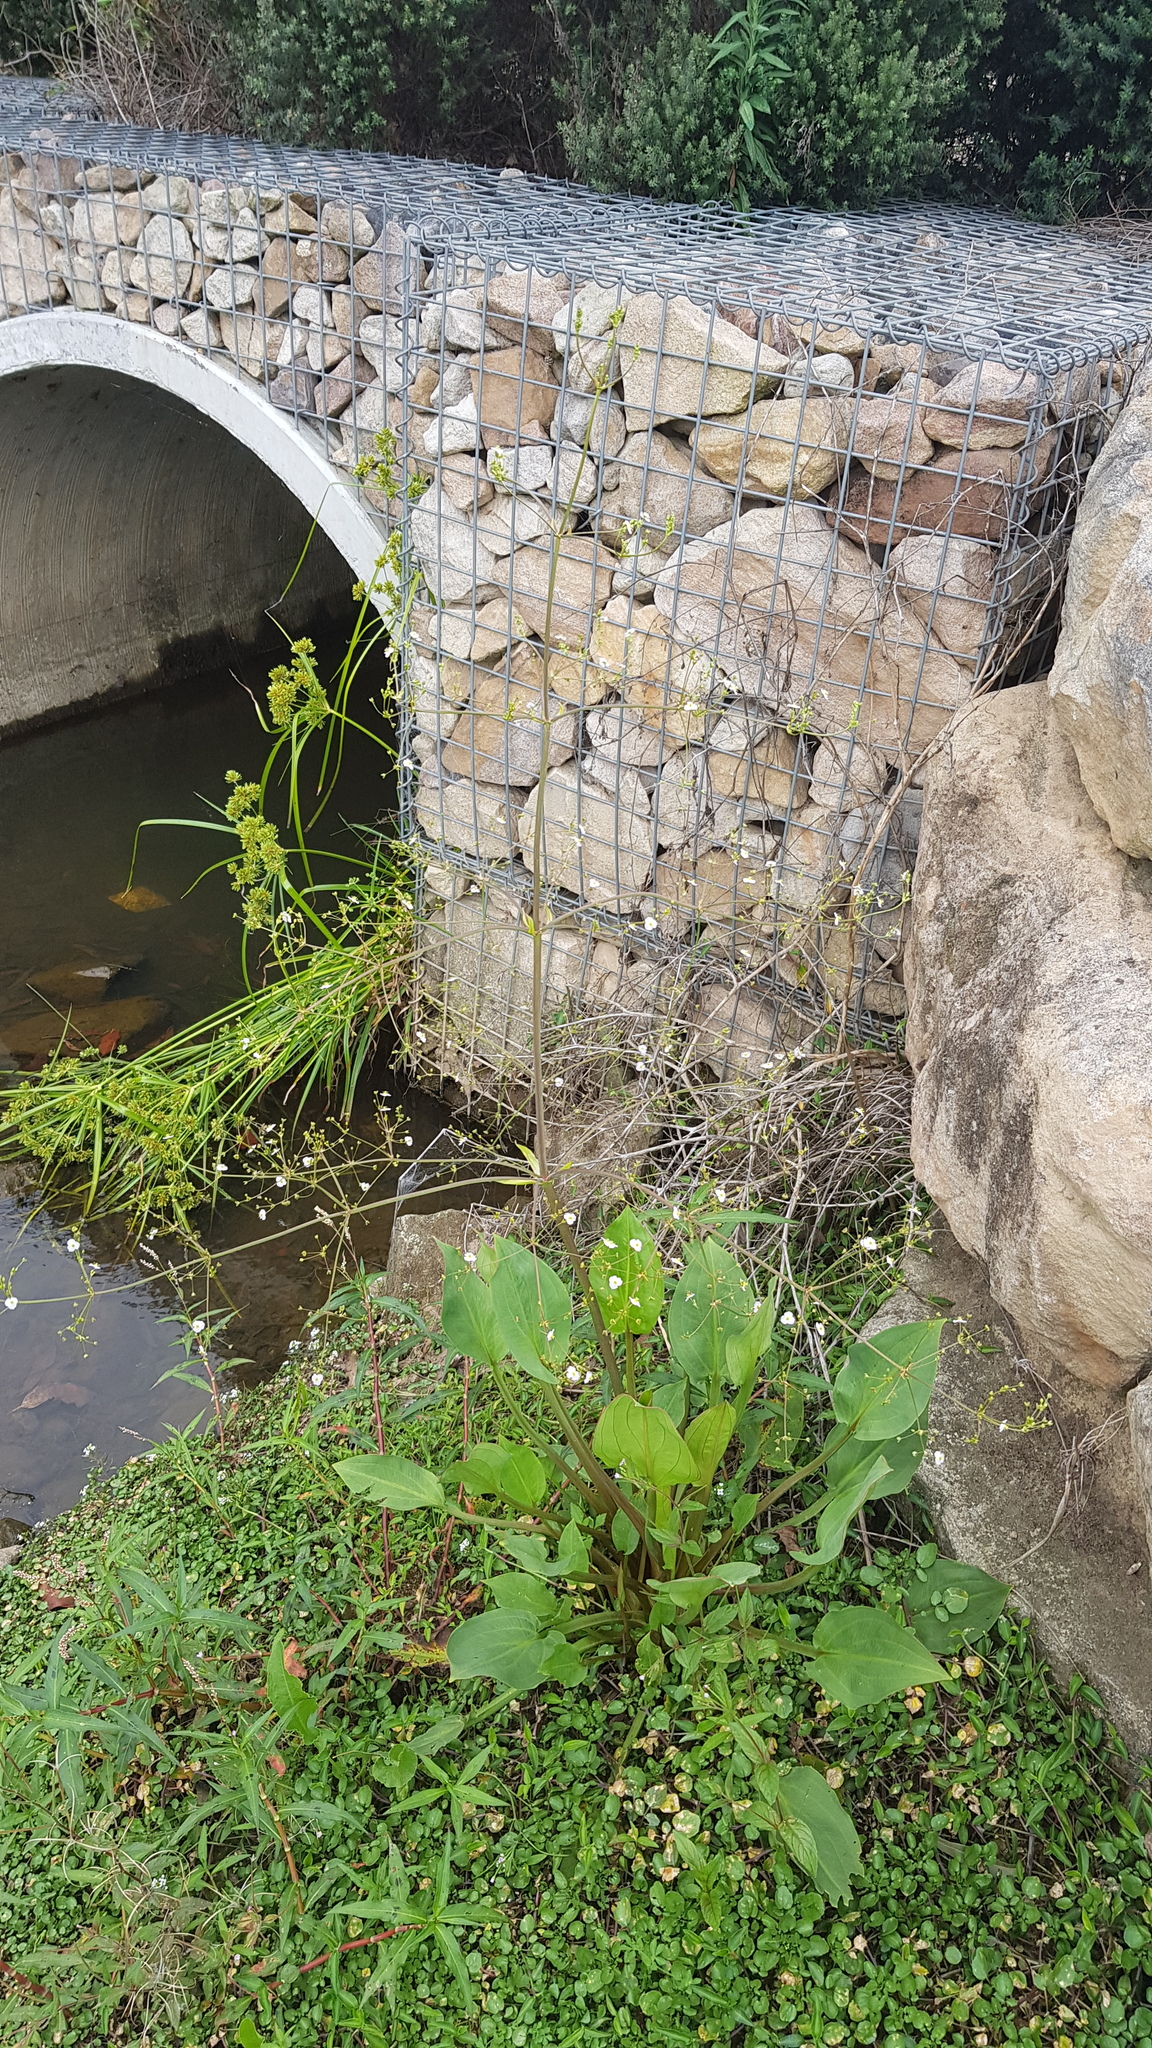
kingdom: Plantae
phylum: Tracheophyta
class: Liliopsida
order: Alismatales
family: Alismataceae
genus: Alisma
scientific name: Alisma plantago-aquatica
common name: Water-plantain
